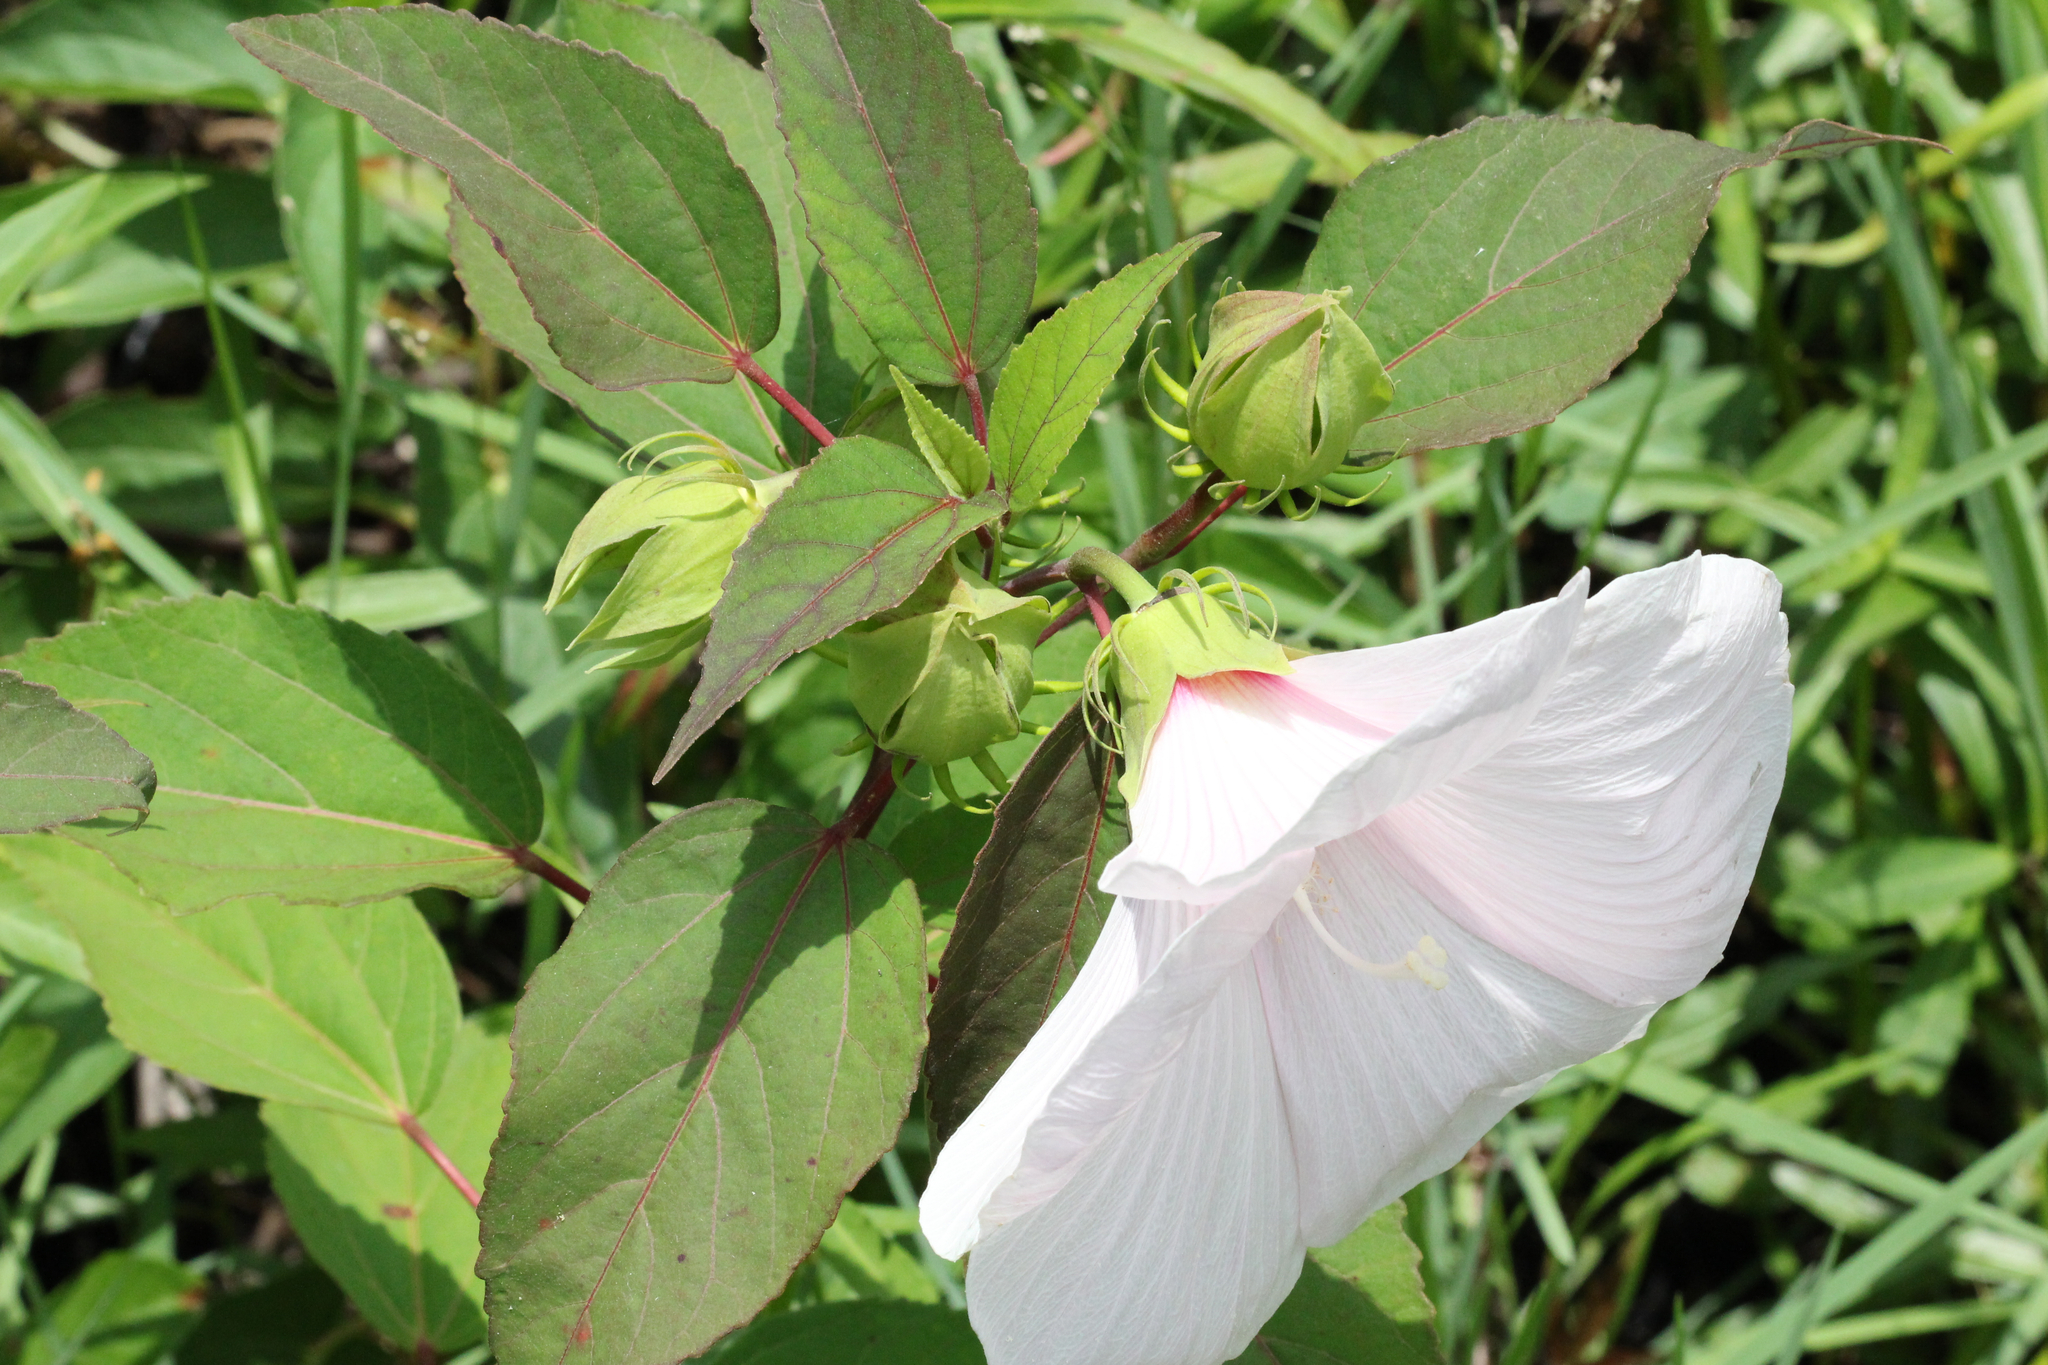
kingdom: Plantae
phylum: Tracheophyta
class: Magnoliopsida
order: Malvales
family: Malvaceae
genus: Hibiscus
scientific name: Hibiscus moscheutos
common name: Common rose-mallow
